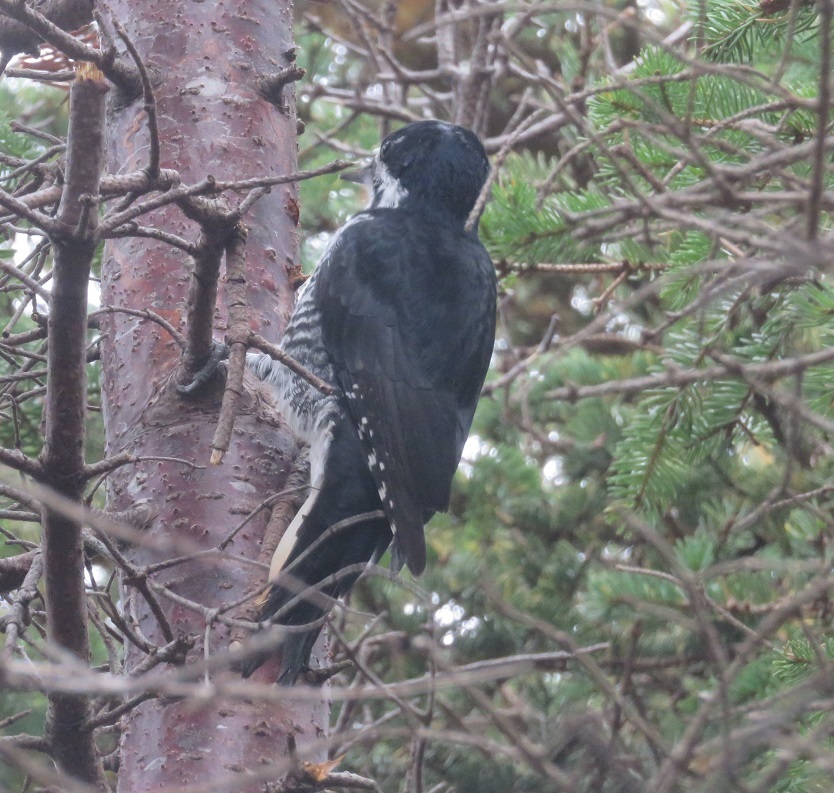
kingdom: Animalia
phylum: Chordata
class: Aves
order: Piciformes
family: Picidae
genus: Picoides
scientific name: Picoides arcticus
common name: Black-backed woodpecker
